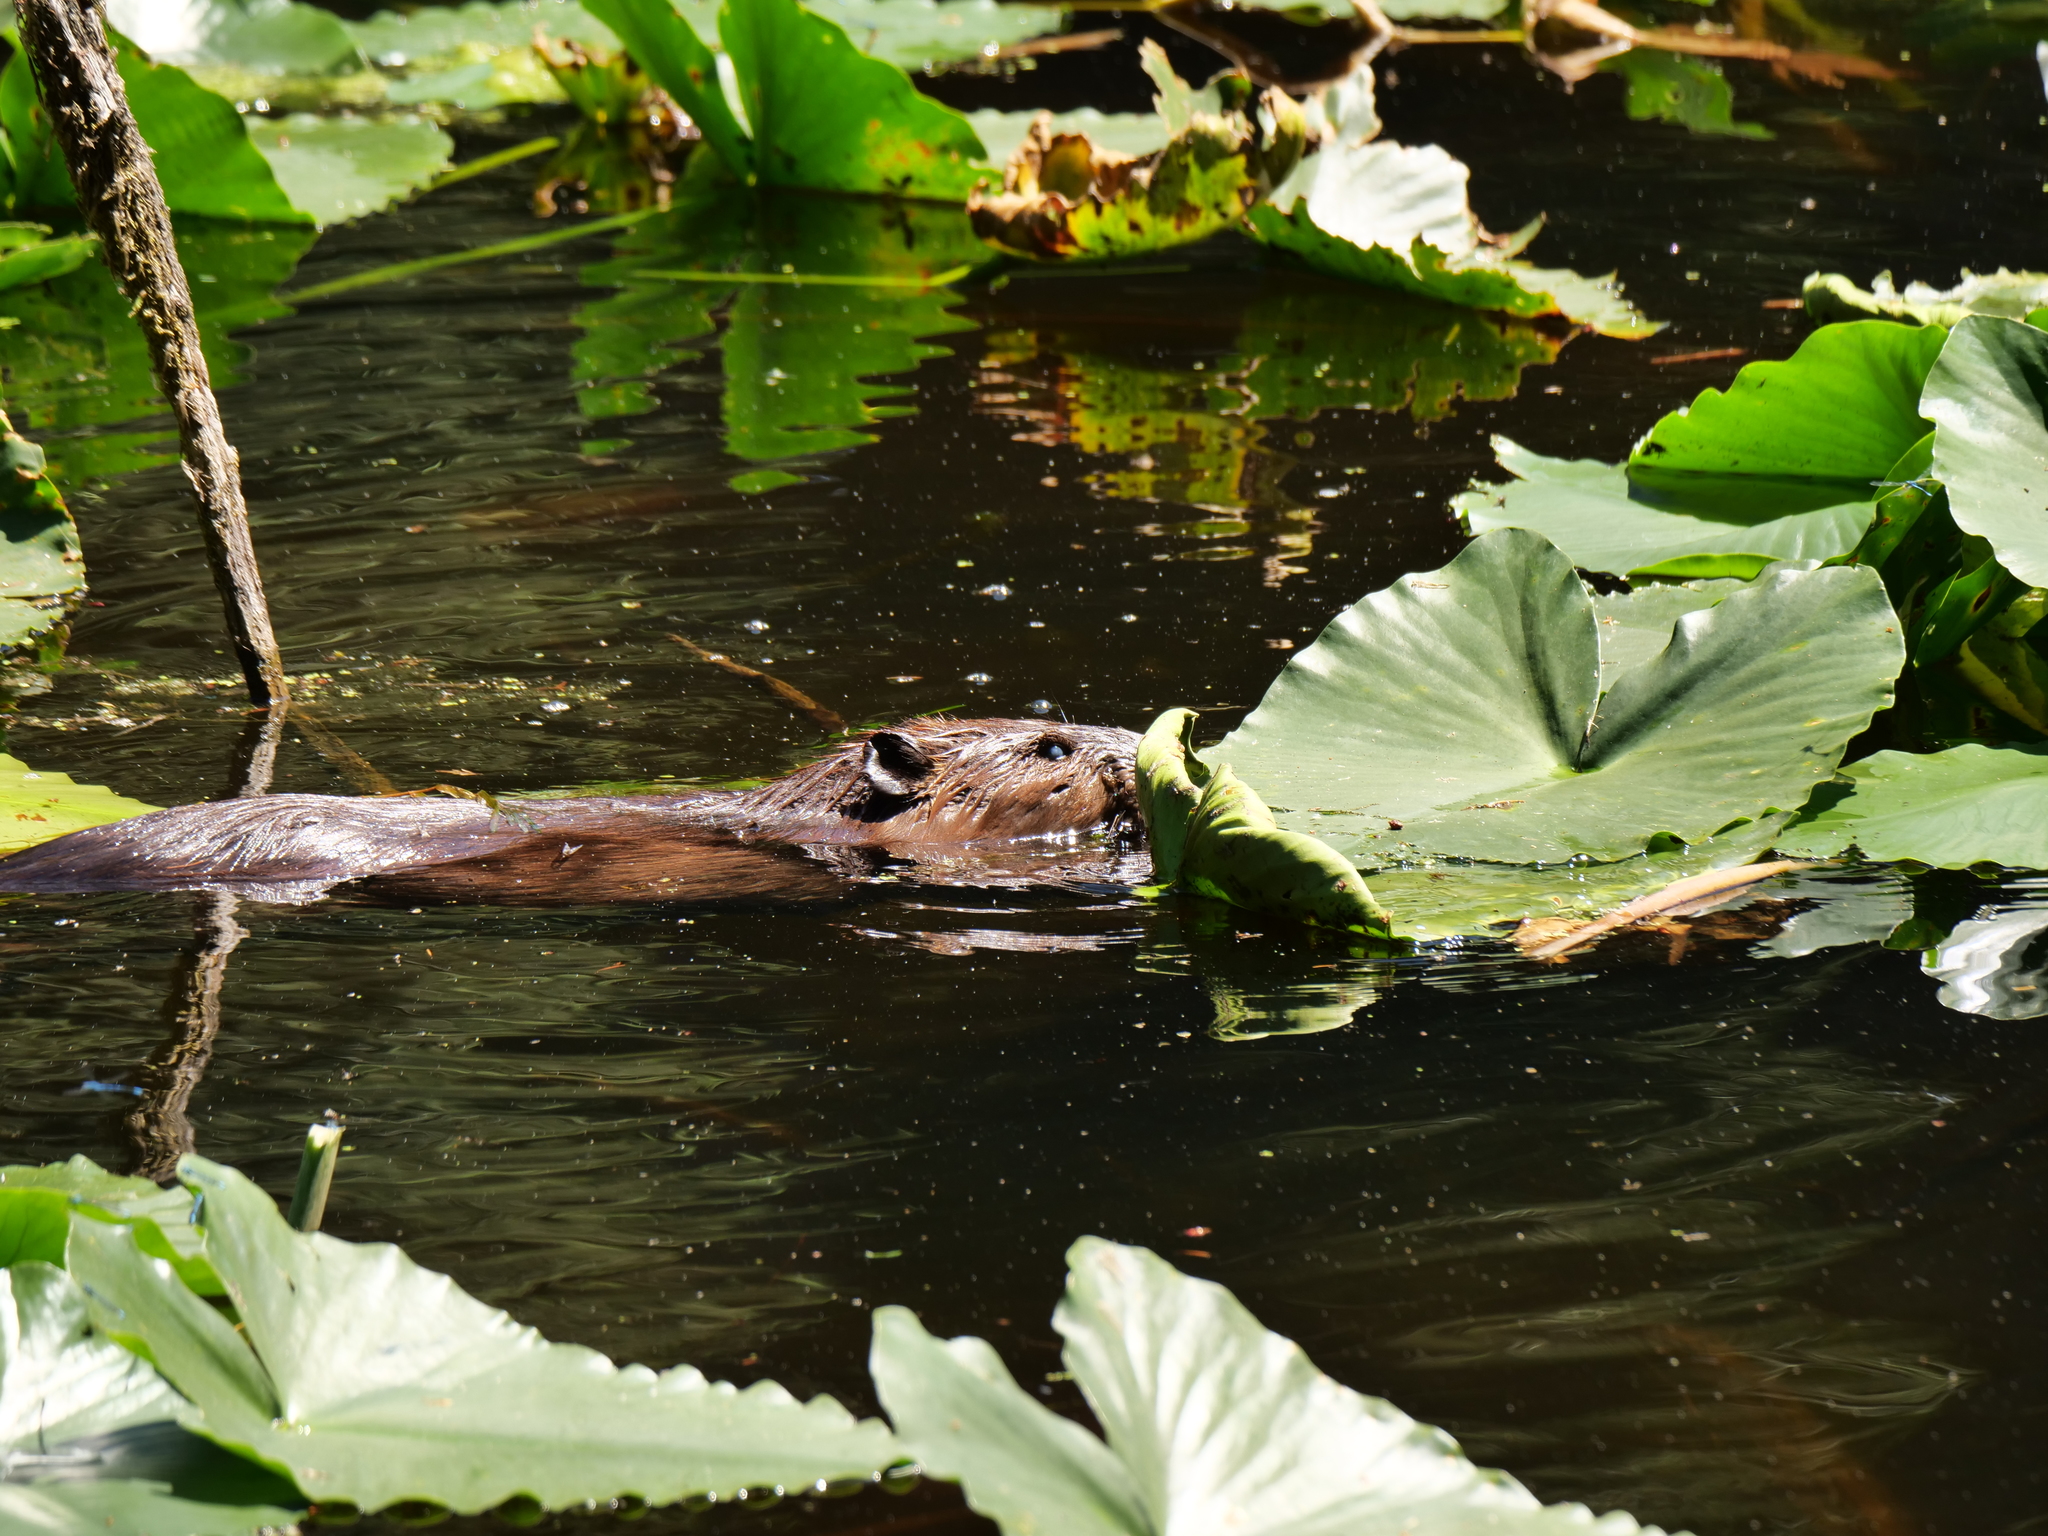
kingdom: Animalia
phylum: Chordata
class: Mammalia
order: Rodentia
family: Castoridae
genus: Castor
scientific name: Castor canadensis
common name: American beaver
